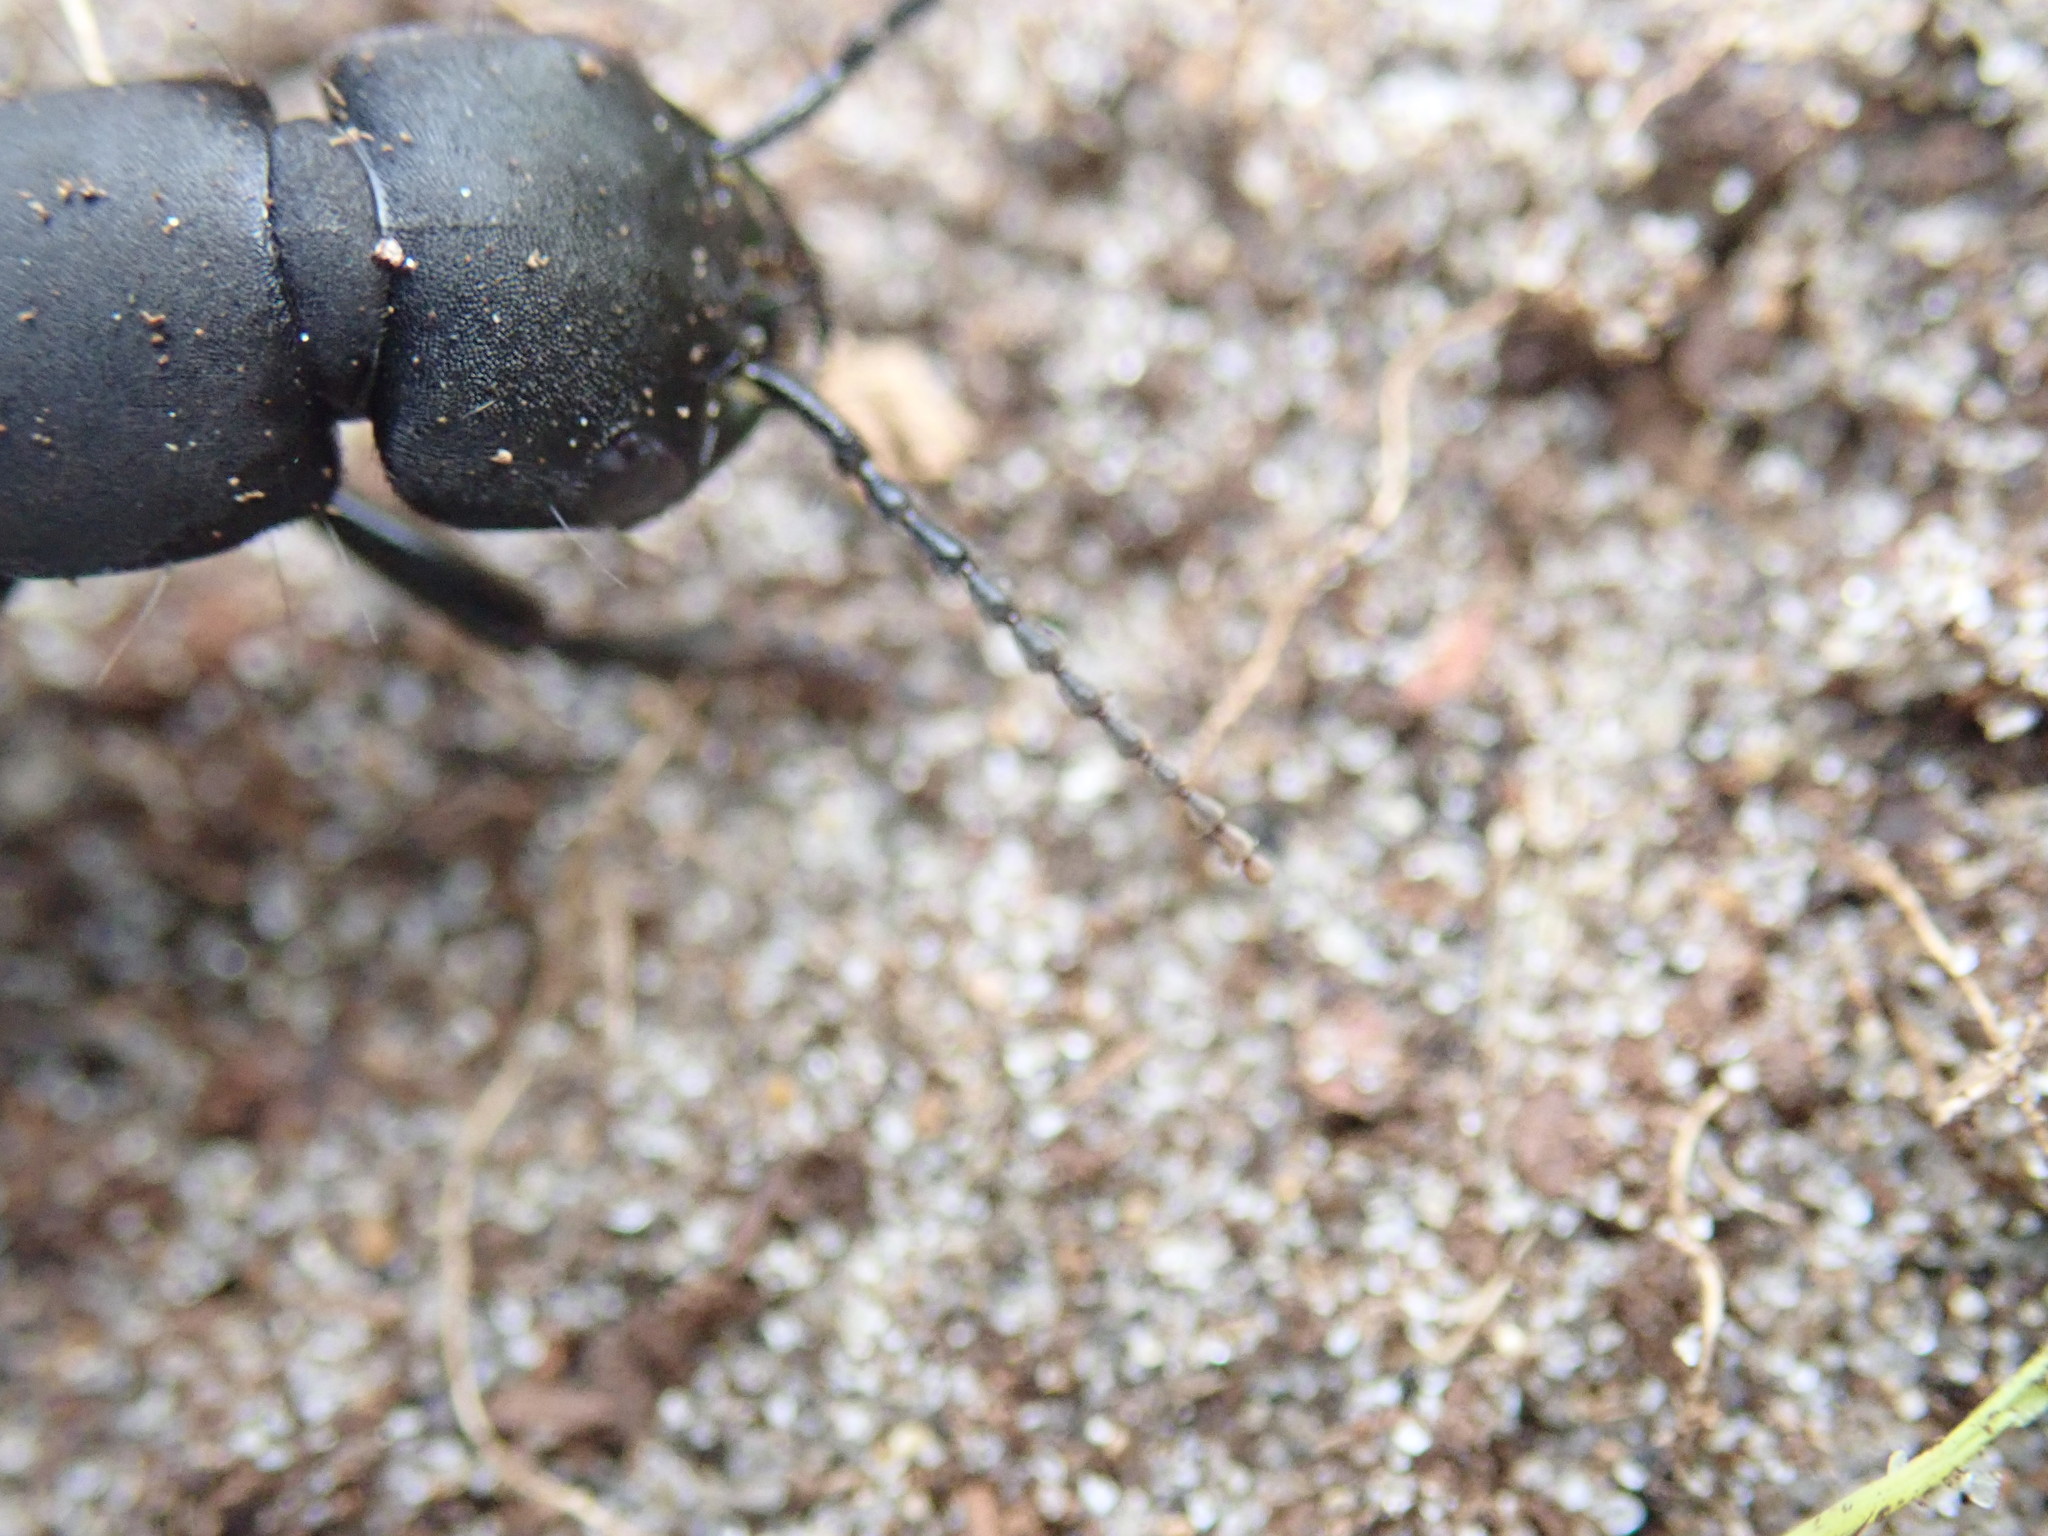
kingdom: Animalia
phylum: Arthropoda
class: Insecta
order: Coleoptera
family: Staphylinidae
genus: Ocypus
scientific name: Ocypus olens
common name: Devil's coach-horse
